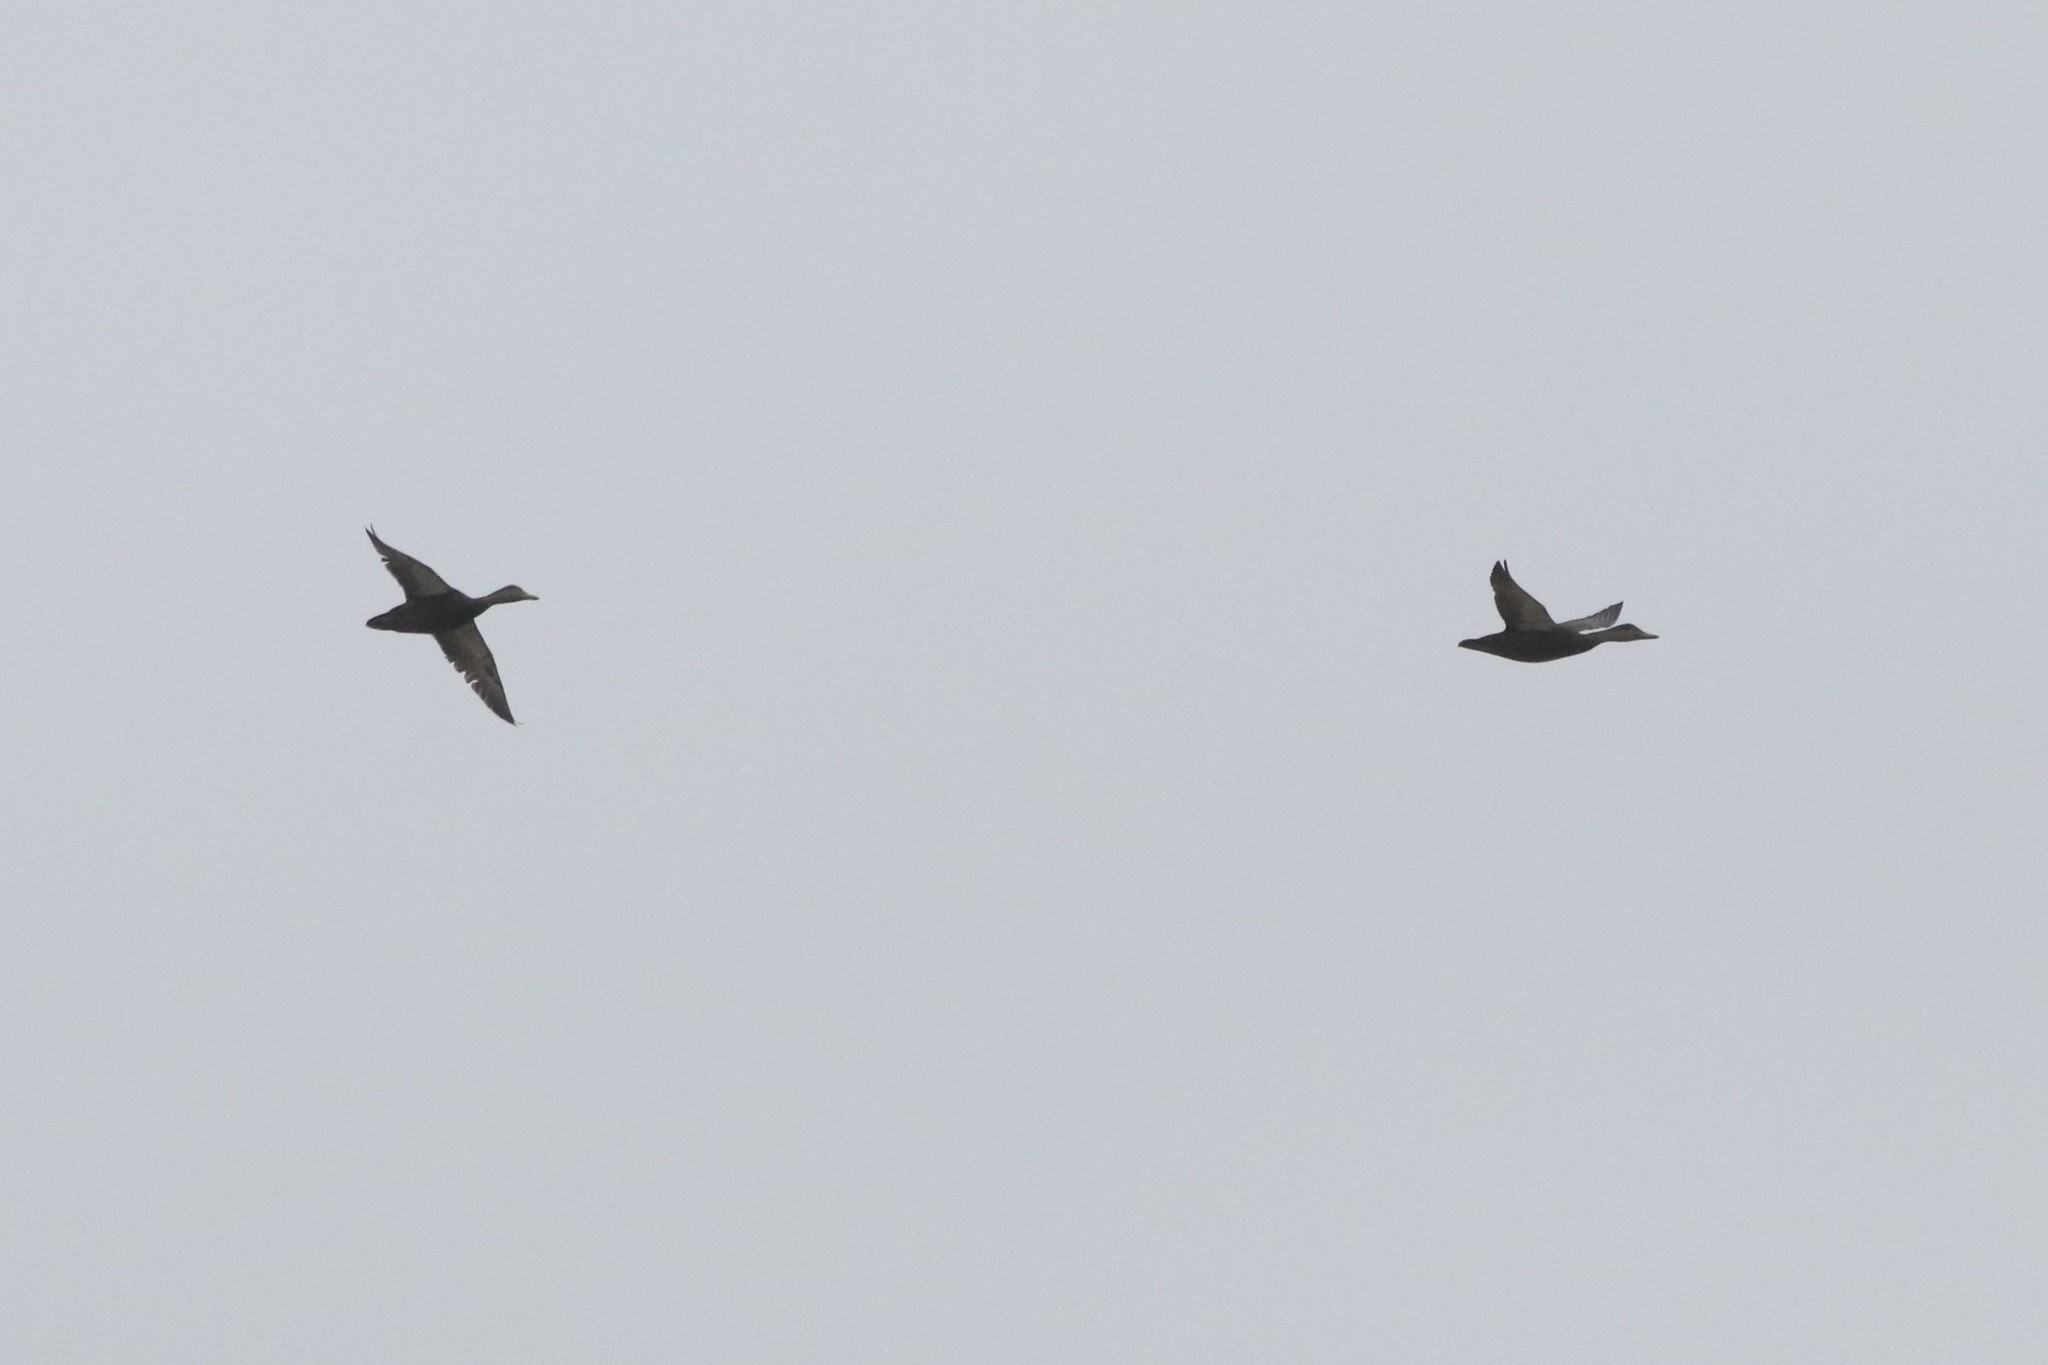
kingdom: Animalia
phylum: Chordata
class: Aves
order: Anseriformes
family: Anatidae
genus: Anas
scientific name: Anas rubripes
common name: American black duck
